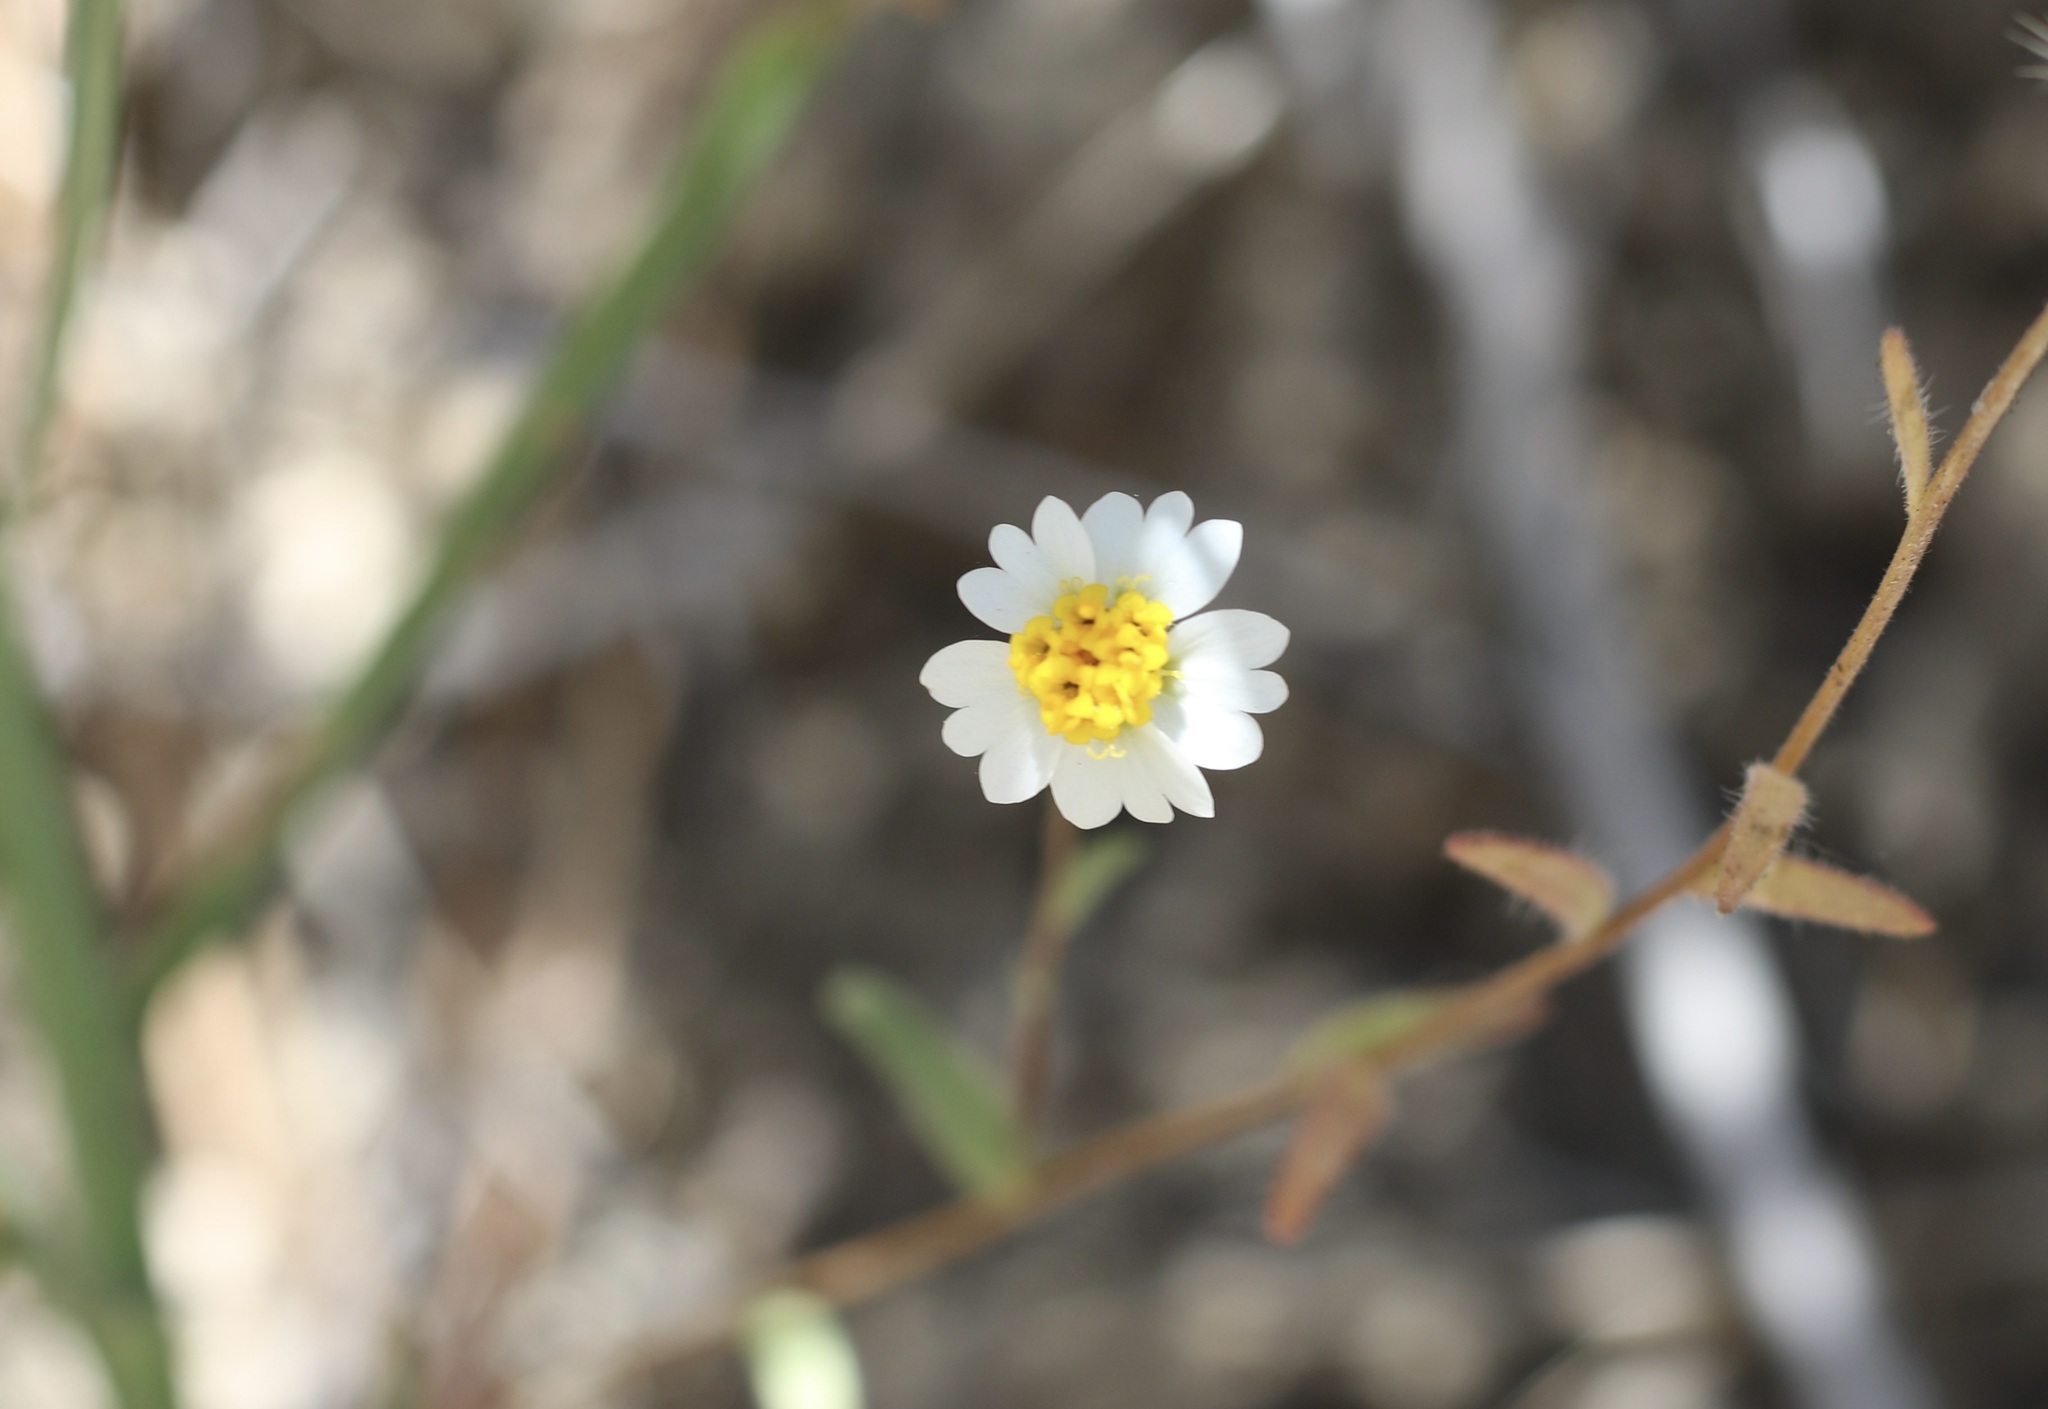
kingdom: Plantae
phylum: Tracheophyta
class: Magnoliopsida
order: Asterales
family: Asteraceae
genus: Layia
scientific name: Layia glandulosa
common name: White layia
